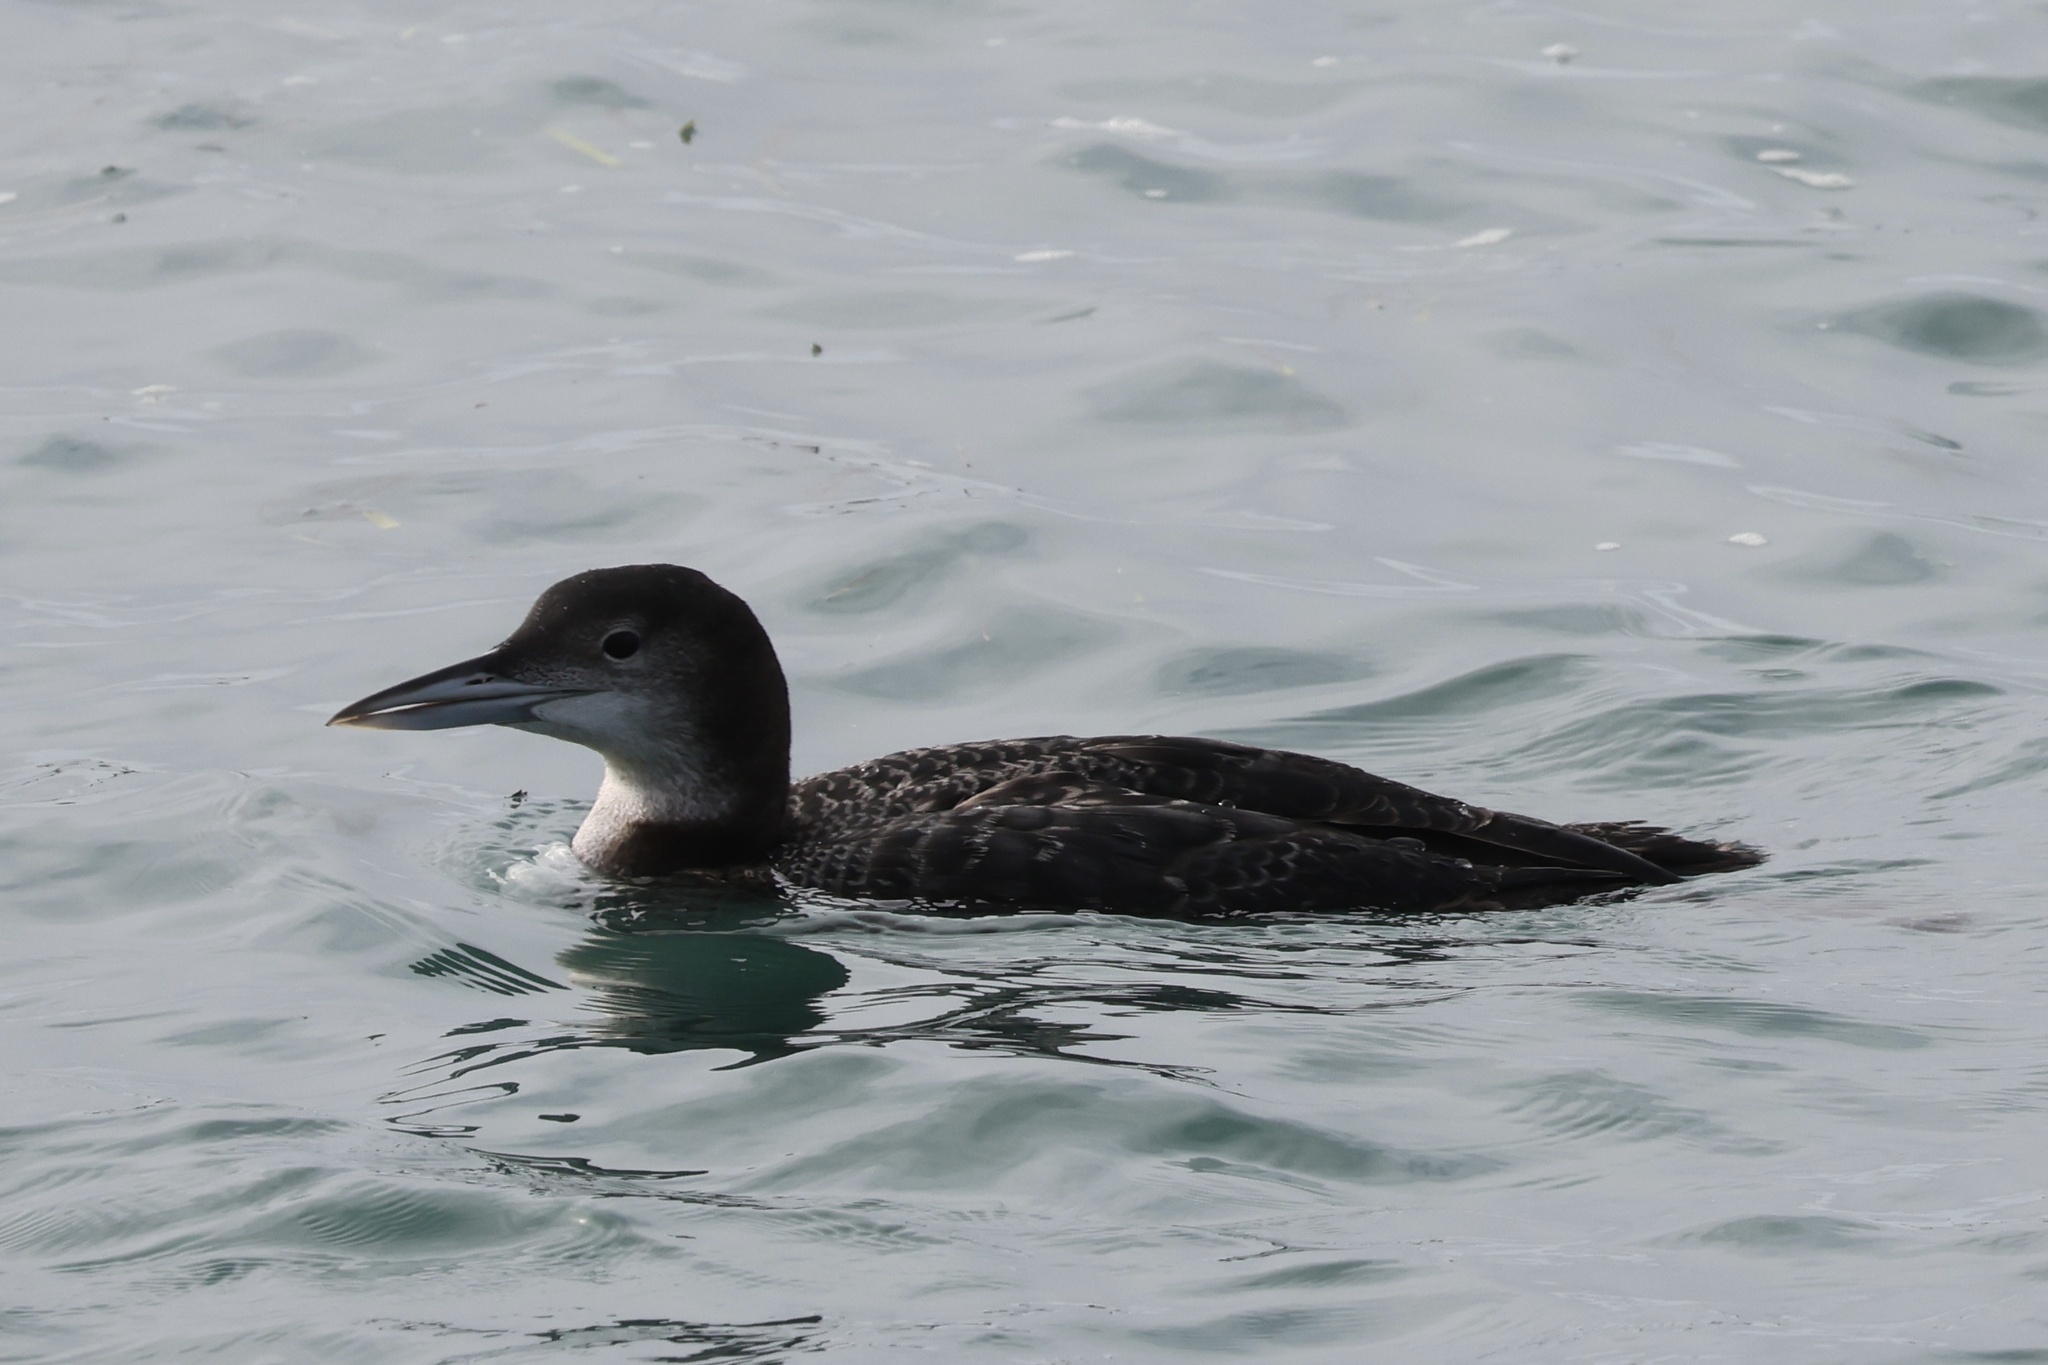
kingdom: Animalia
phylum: Chordata
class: Aves
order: Gaviiformes
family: Gaviidae
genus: Gavia
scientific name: Gavia immer
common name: Common loon
